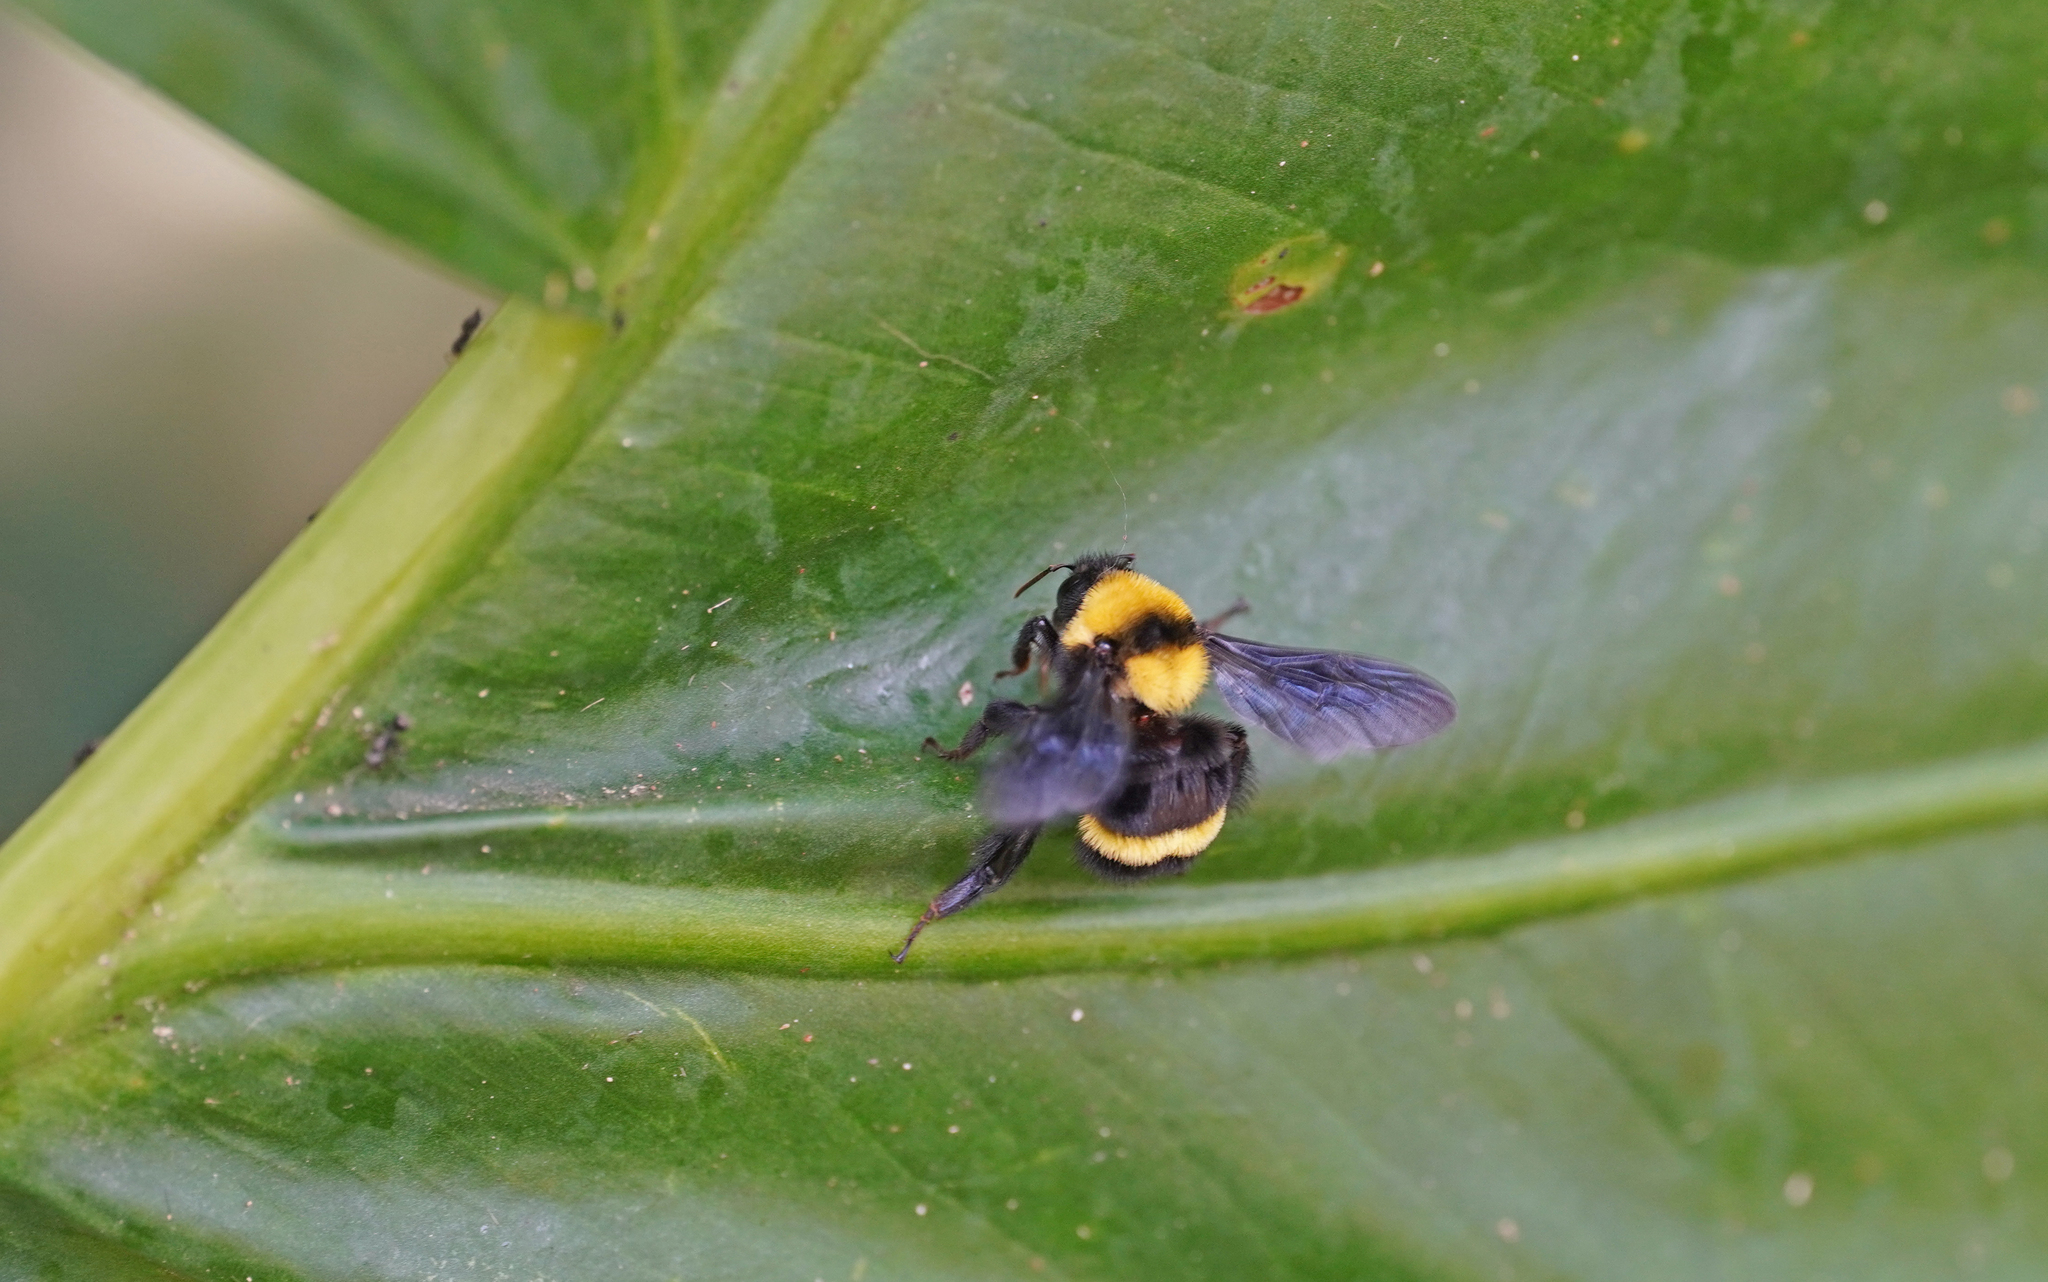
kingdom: Animalia
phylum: Arthropoda
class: Insecta
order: Hymenoptera
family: Apidae
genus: Bombus
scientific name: Bombus transversalis
